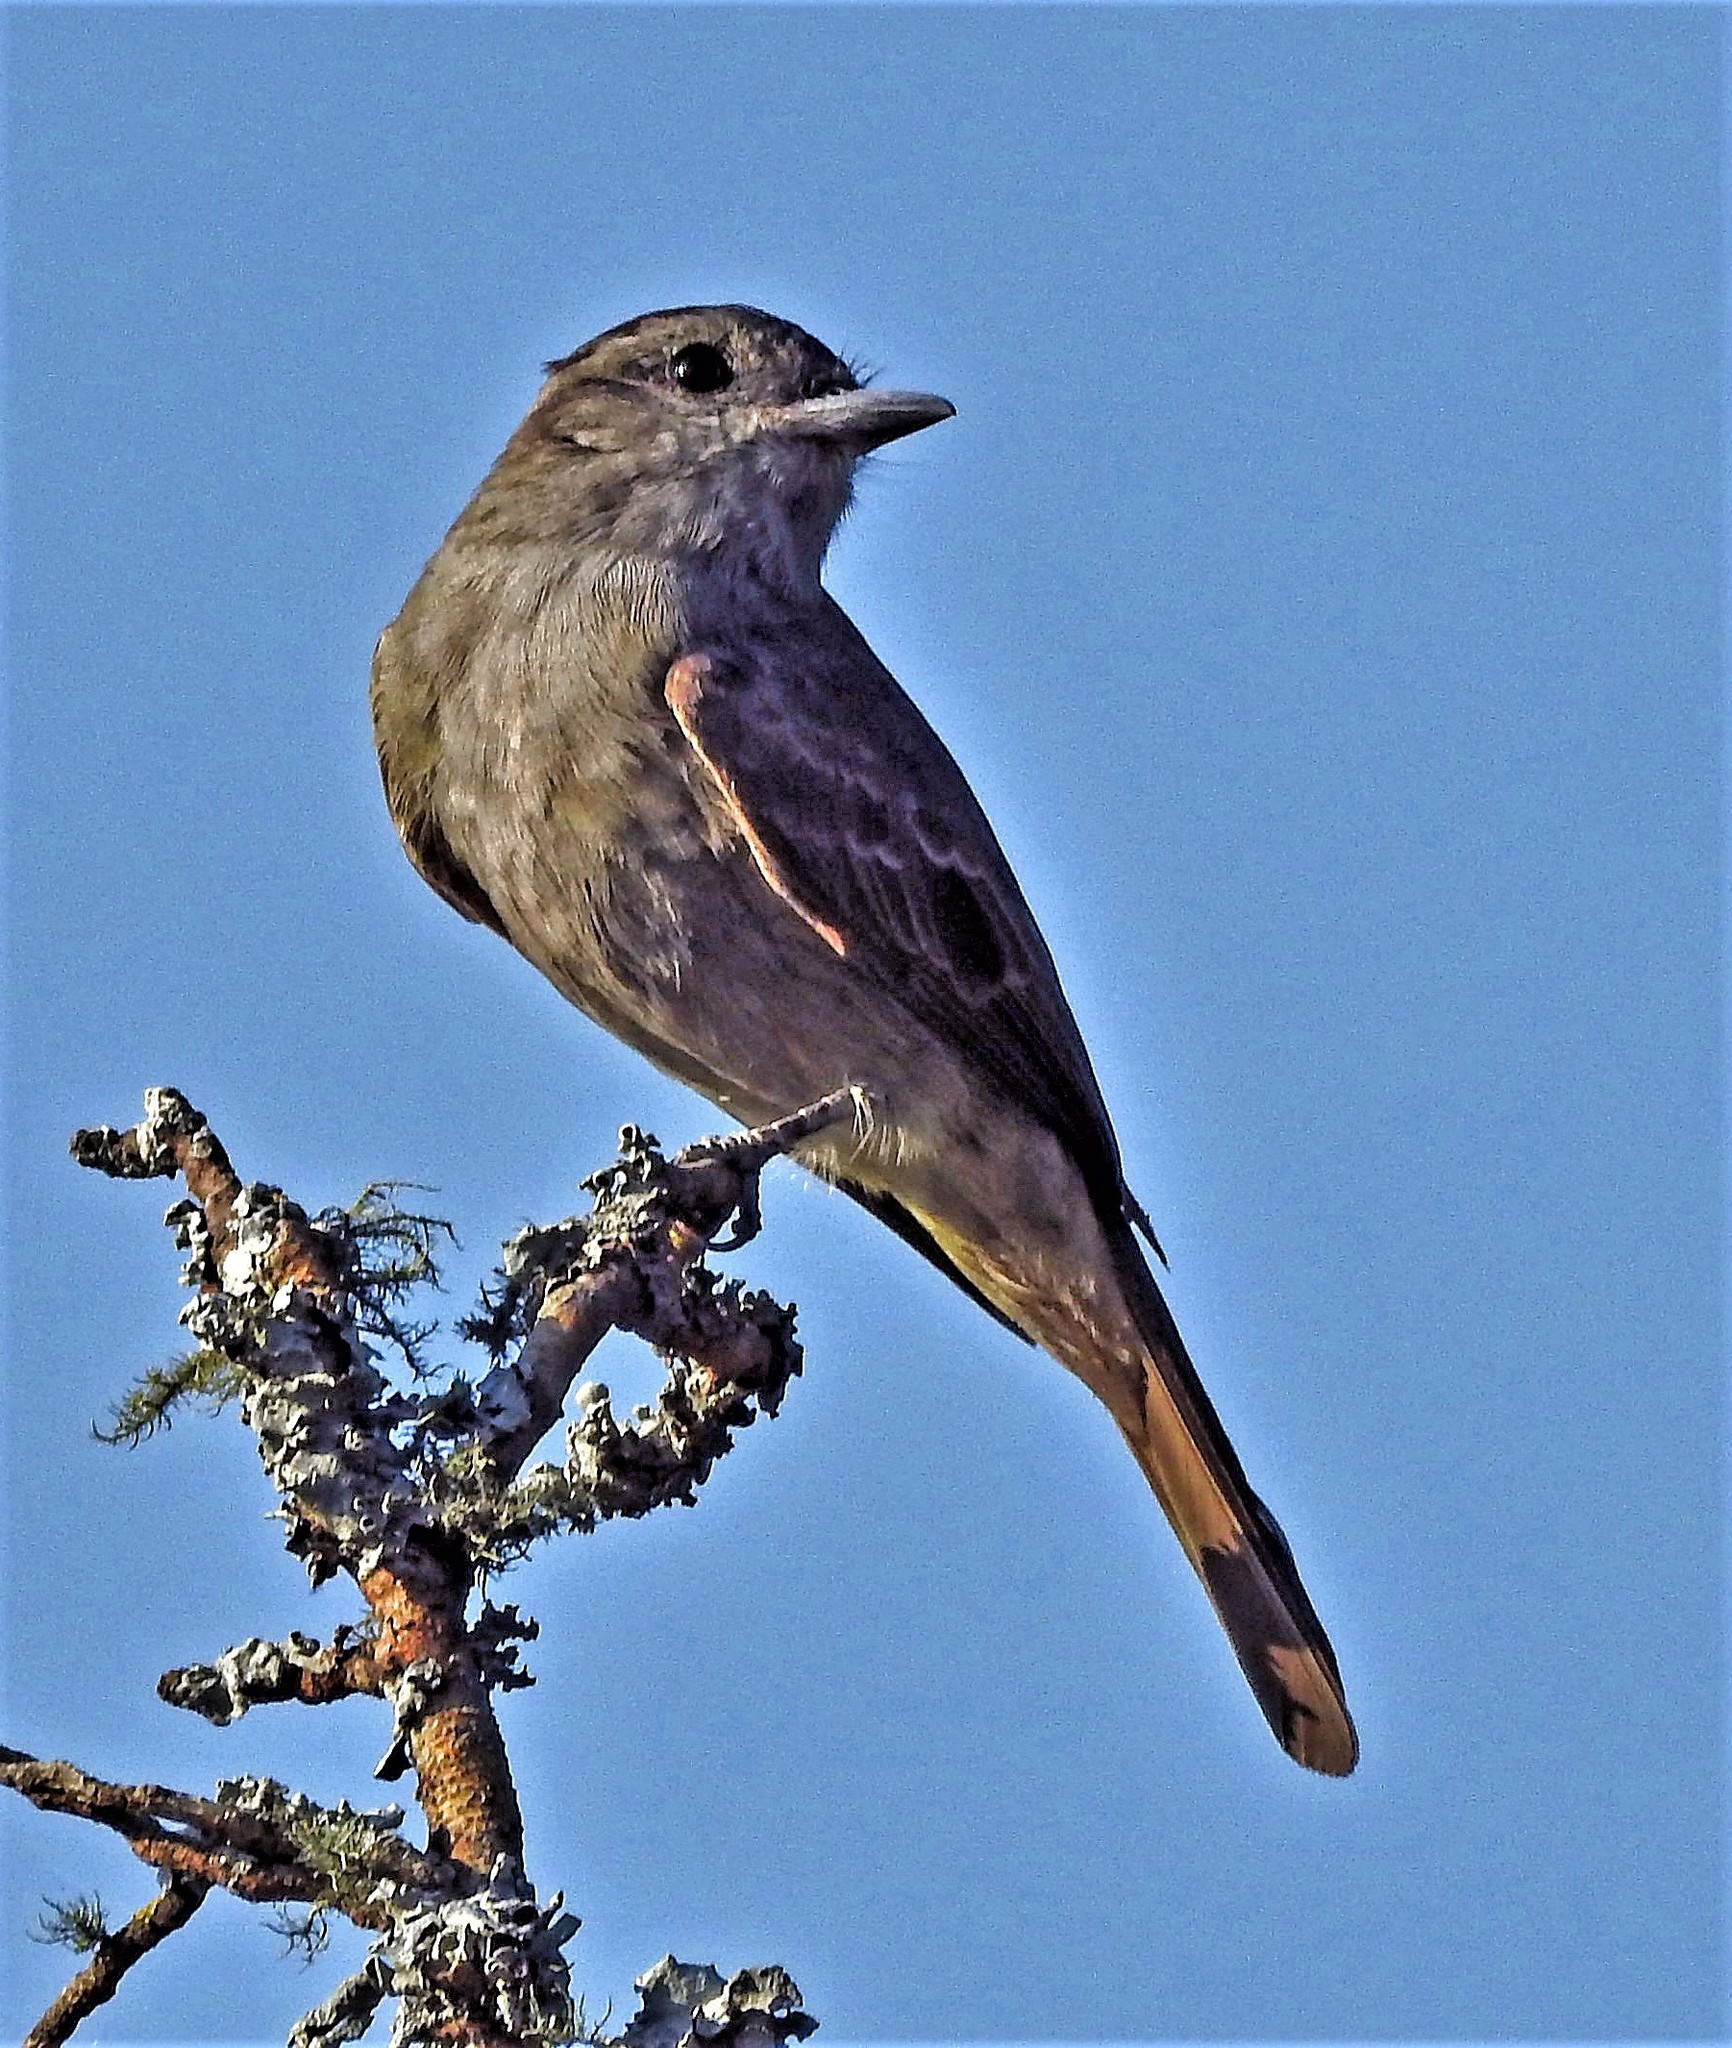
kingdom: Animalia
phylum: Chordata
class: Aves
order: Passeriformes
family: Tyrannidae
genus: Empidonomus
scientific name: Empidonomus aurantioatrocristatus
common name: Crowned slaty flycatcher
